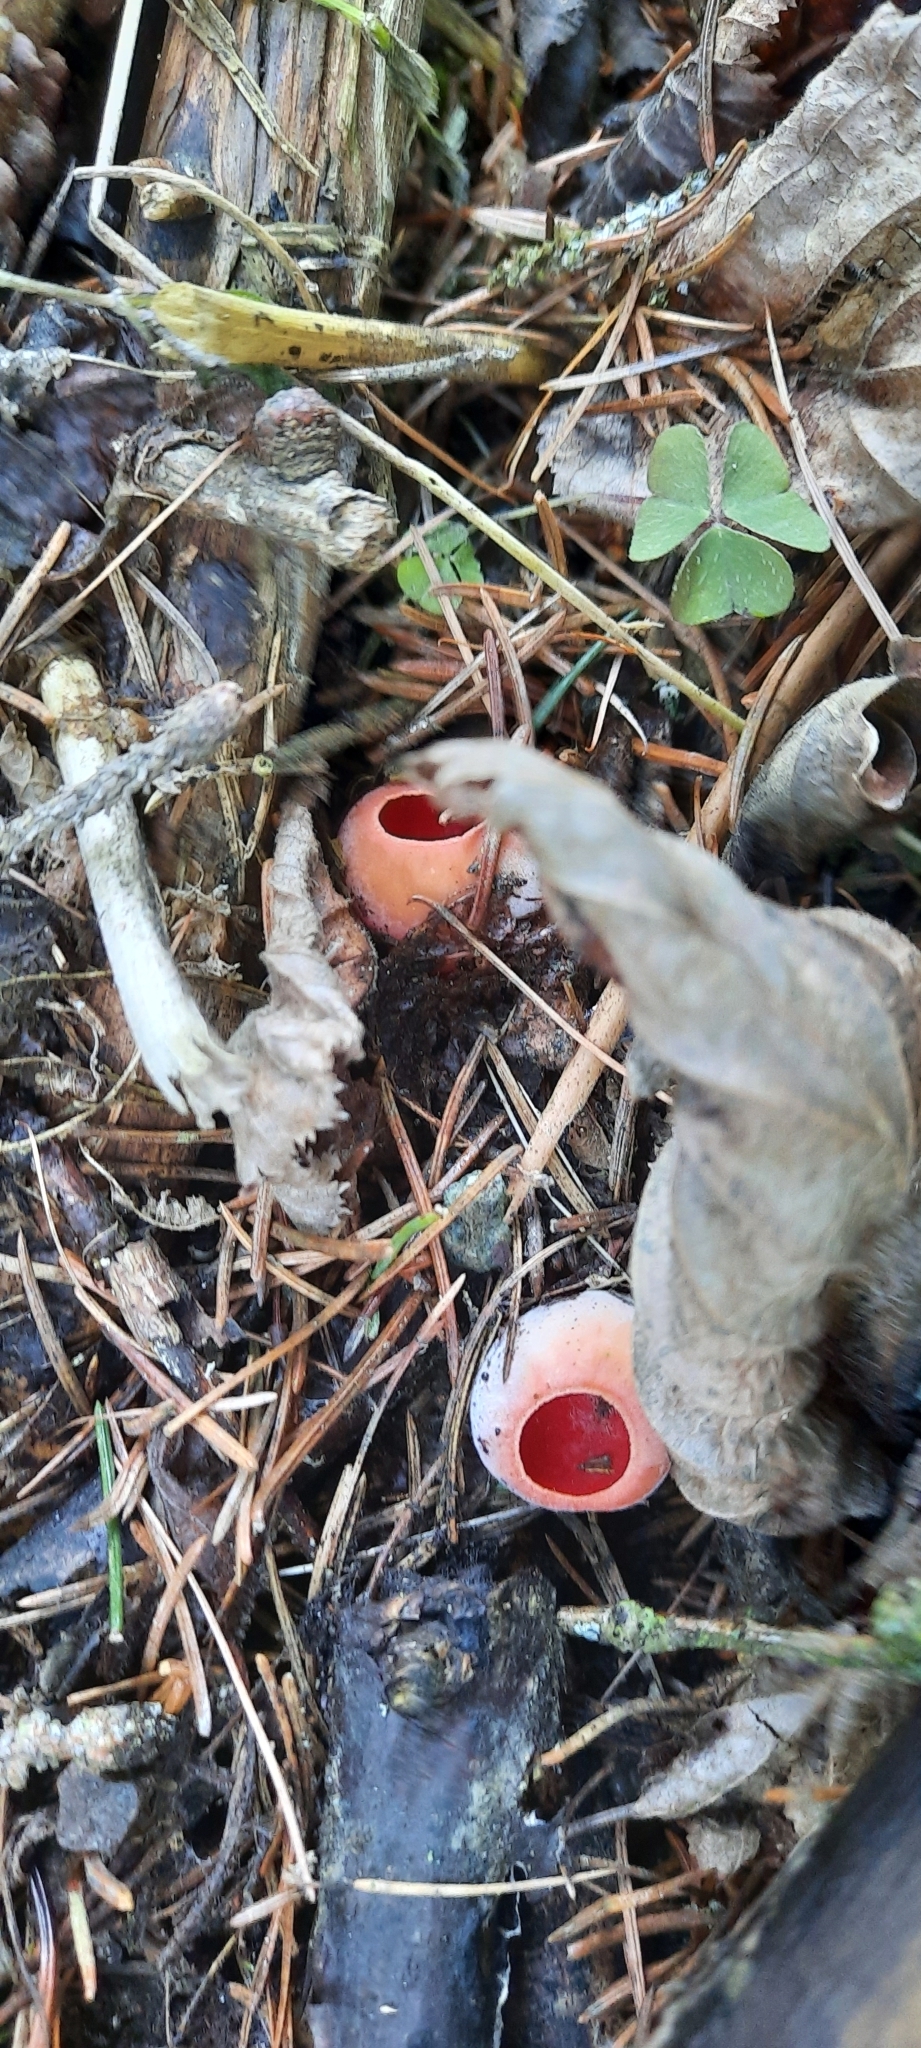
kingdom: Fungi
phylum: Ascomycota
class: Pezizomycetes
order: Pezizales
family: Sarcoscyphaceae
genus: Sarcoscypha
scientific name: Sarcoscypha
